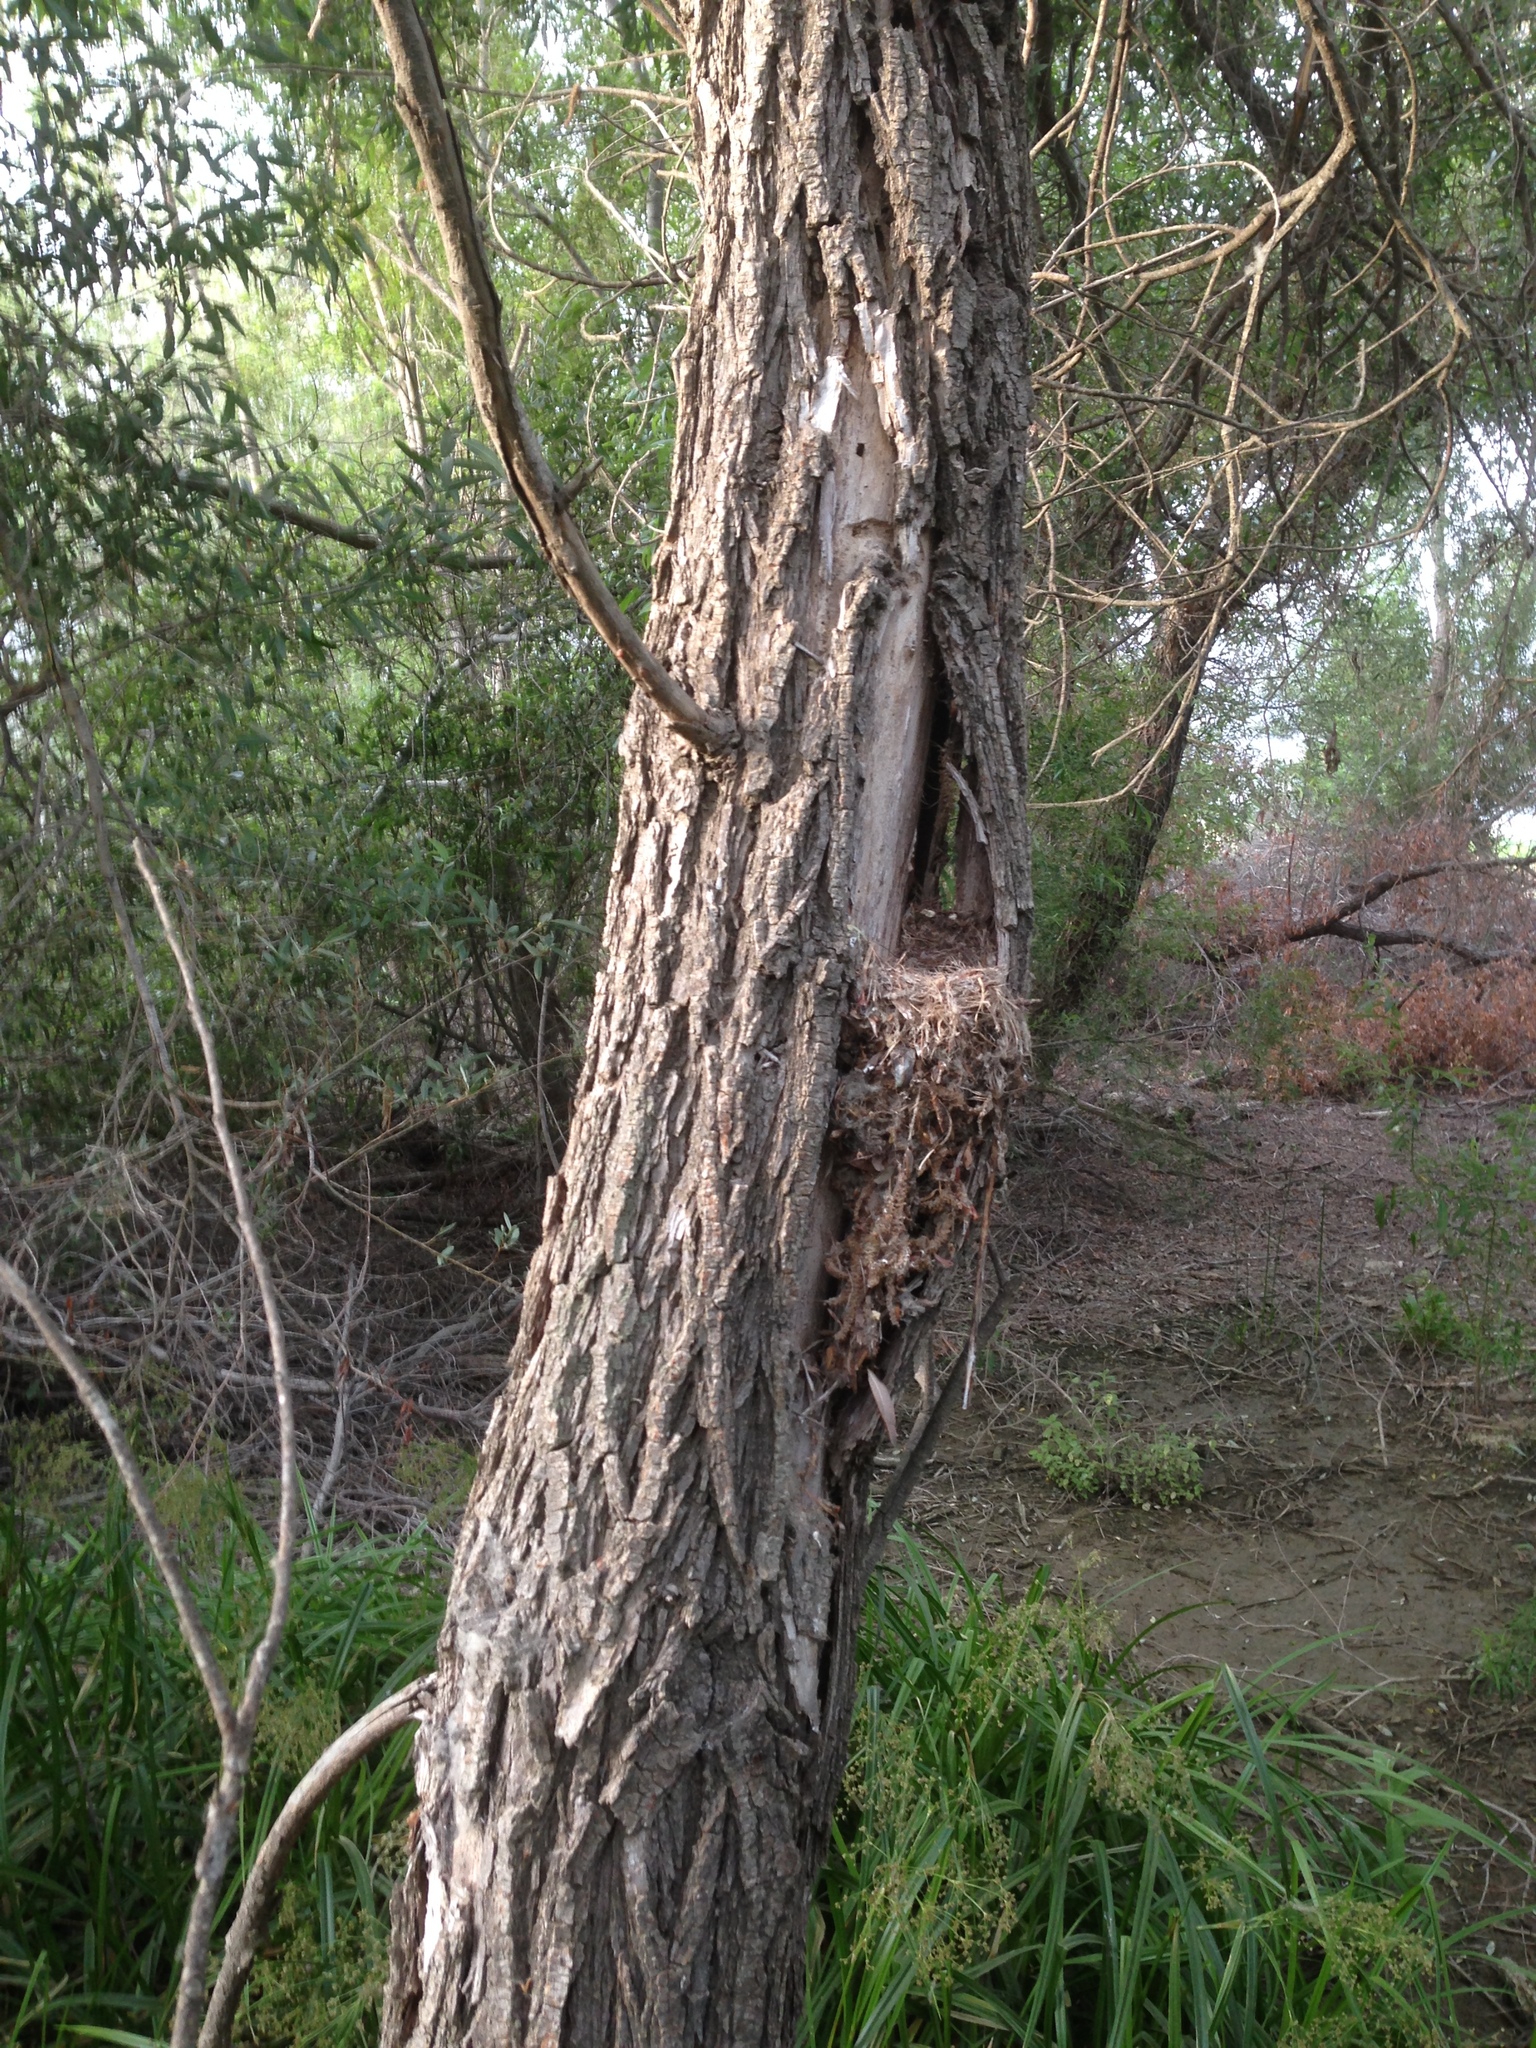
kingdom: Animalia
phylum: Chordata
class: Aves
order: Passeriformes
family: Tyrannidae
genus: Empidonax
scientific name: Empidonax difficilis
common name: Pacific-slope flycatcher
